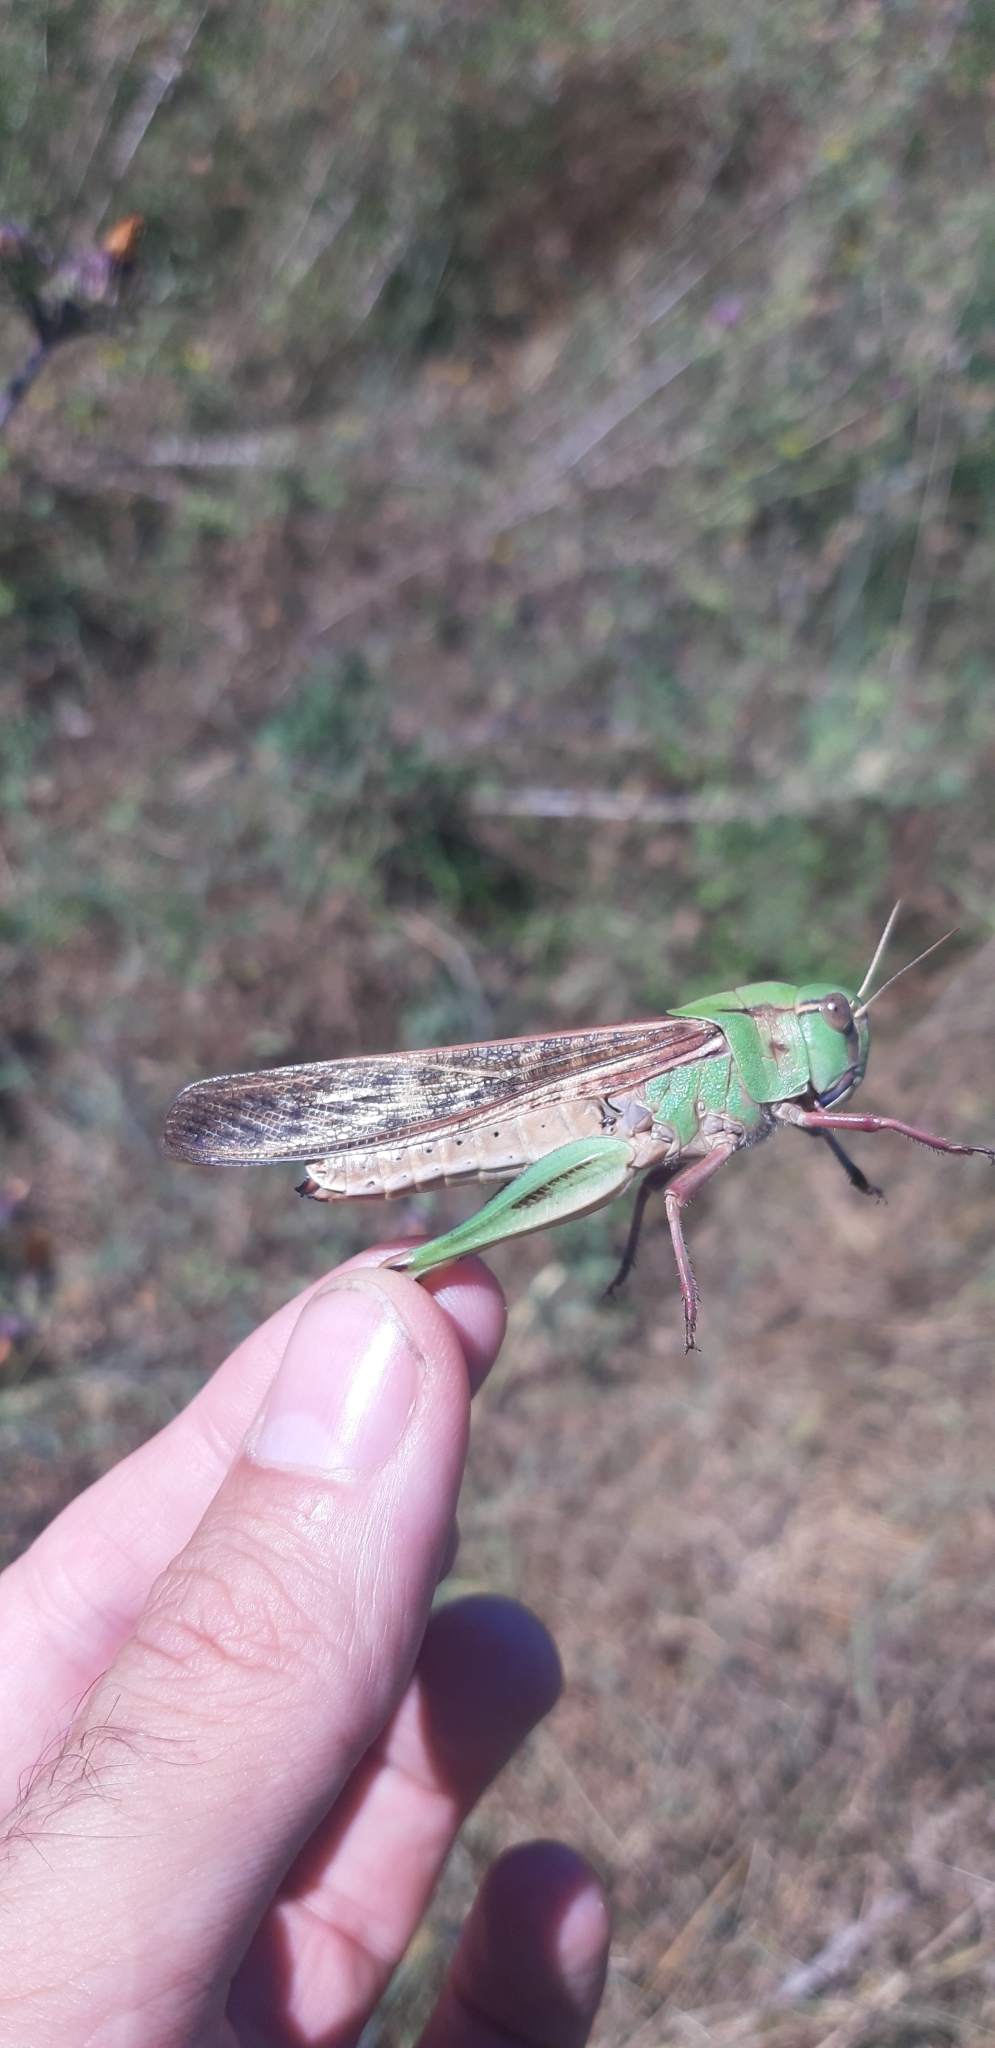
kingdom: Animalia
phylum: Arthropoda
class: Insecta
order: Orthoptera
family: Acrididae
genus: Locusta
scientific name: Locusta migratoria
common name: Migratory locust
